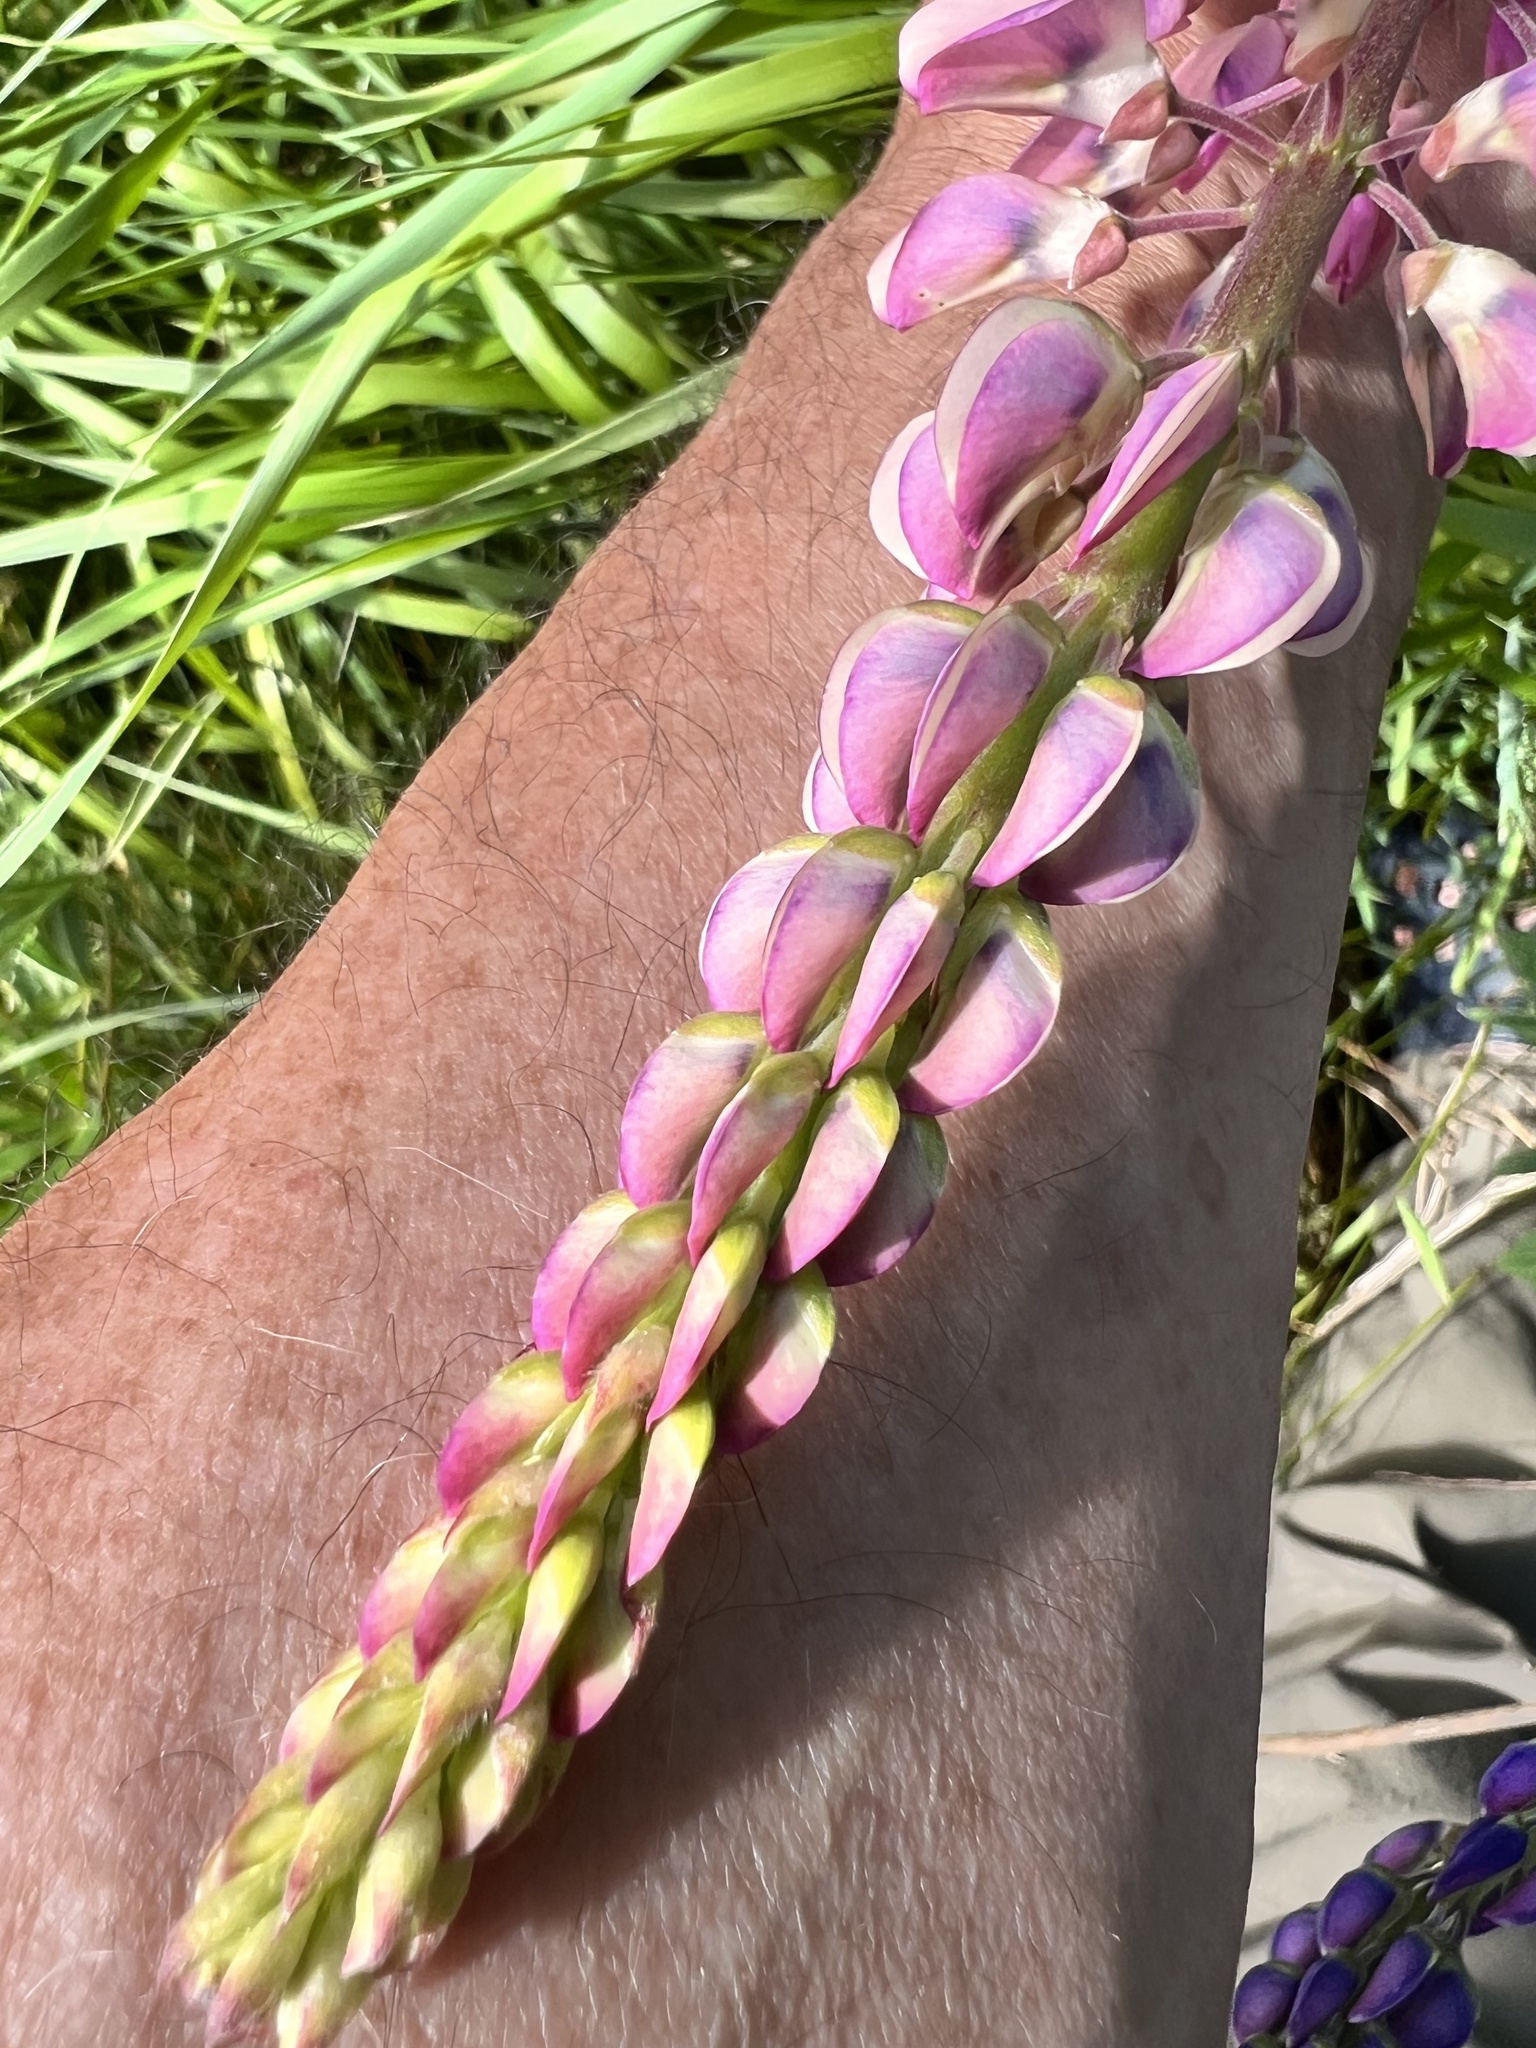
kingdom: Plantae
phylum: Tracheophyta
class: Magnoliopsida
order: Fabales
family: Fabaceae
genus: Lupinus
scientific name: Lupinus polyphyllus
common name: Garden lupin
